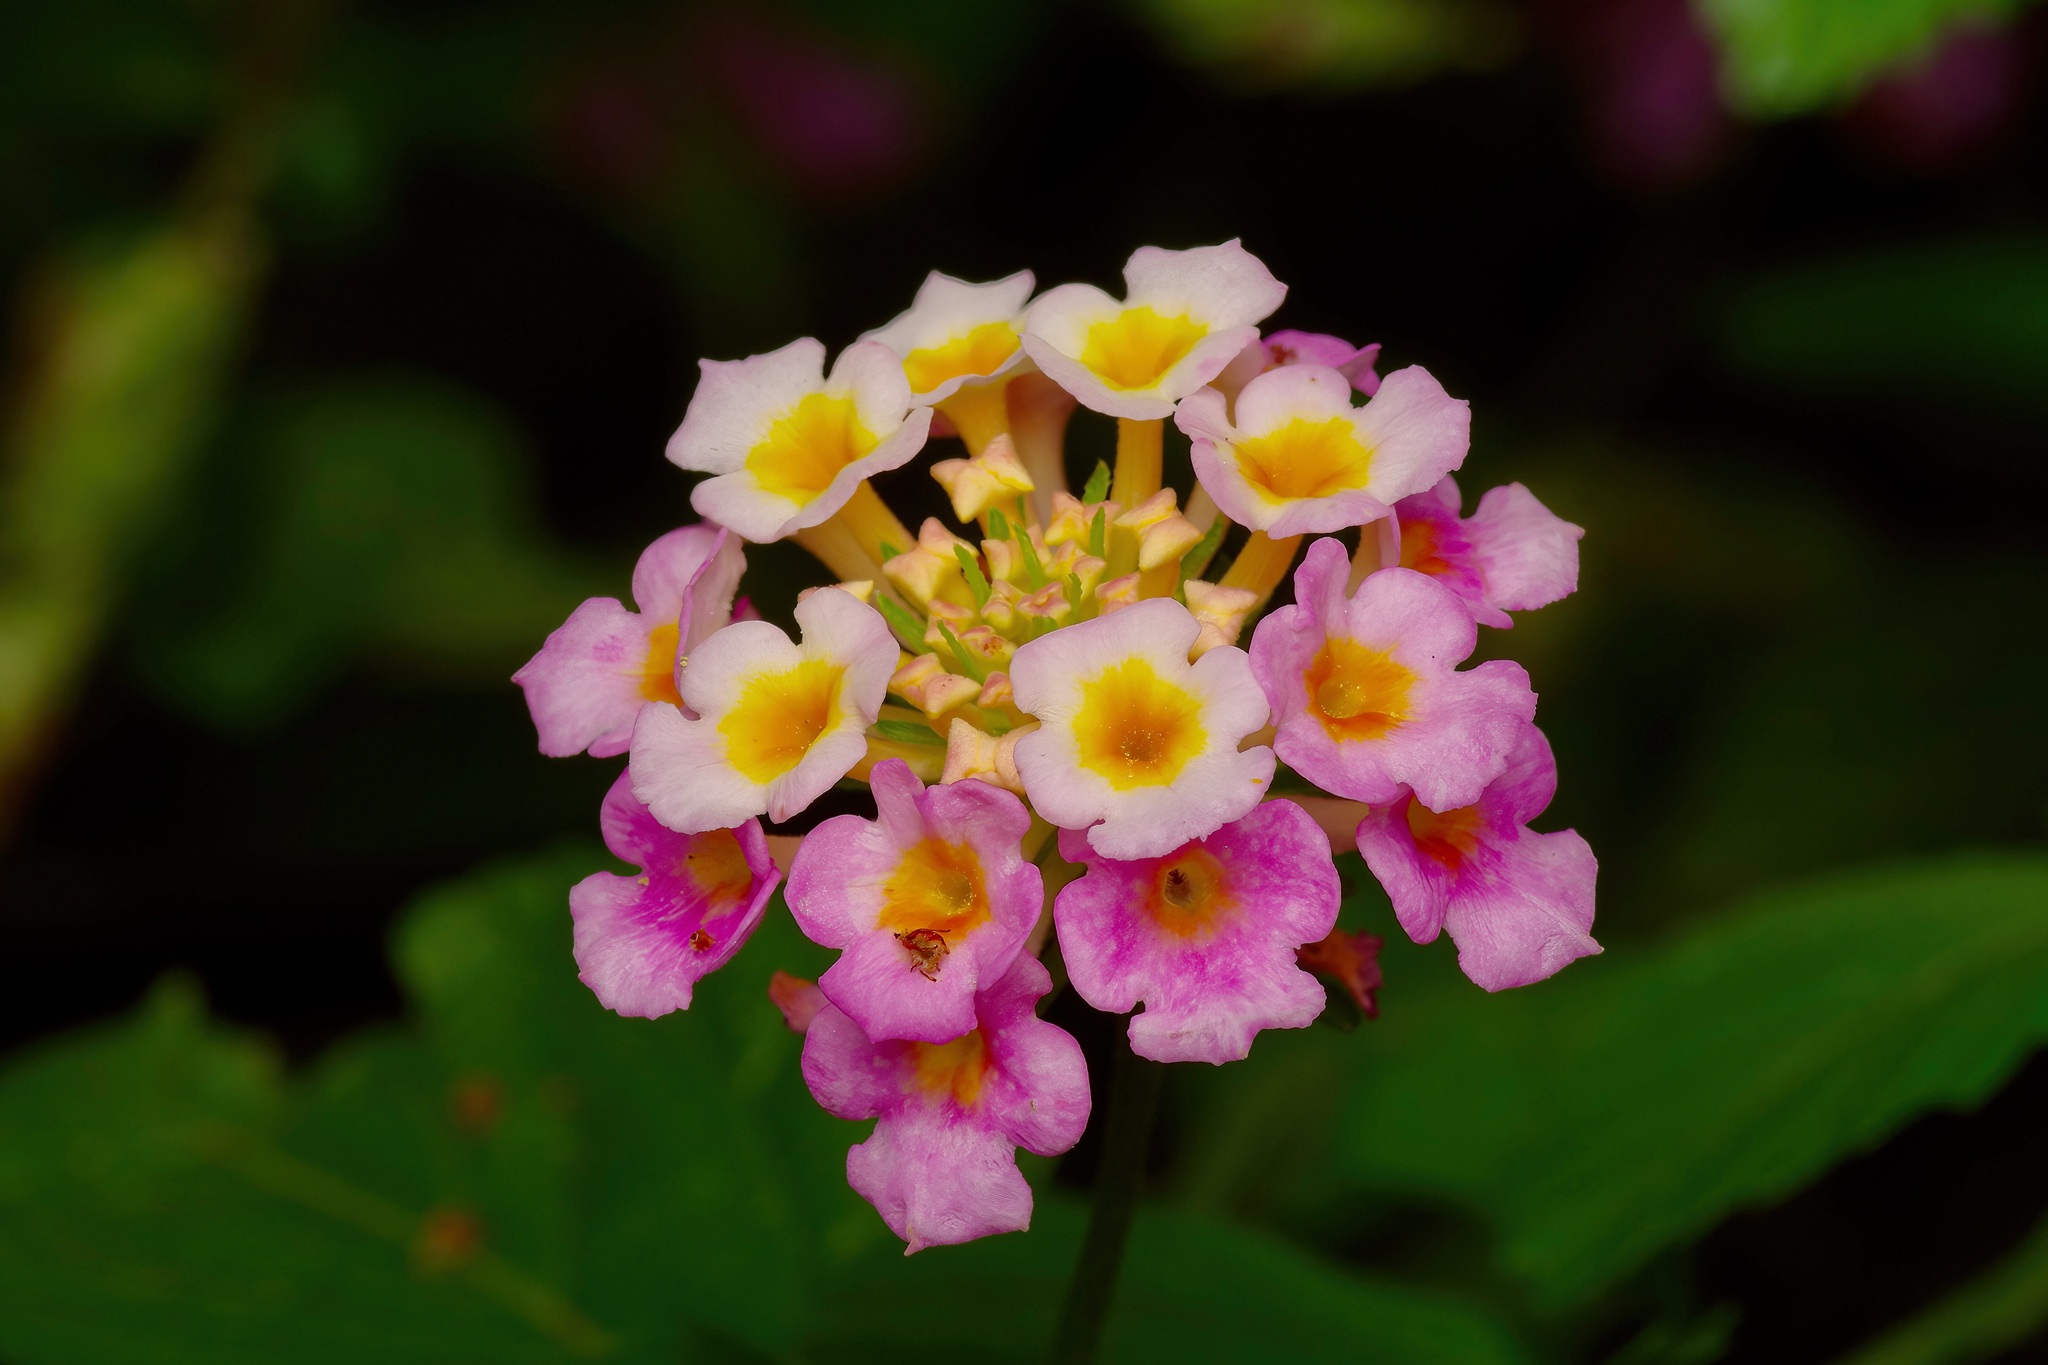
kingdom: Plantae
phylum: Tracheophyta
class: Magnoliopsida
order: Lamiales
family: Verbenaceae
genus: Lantana
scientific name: Lantana strigocamara
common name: Lantana
